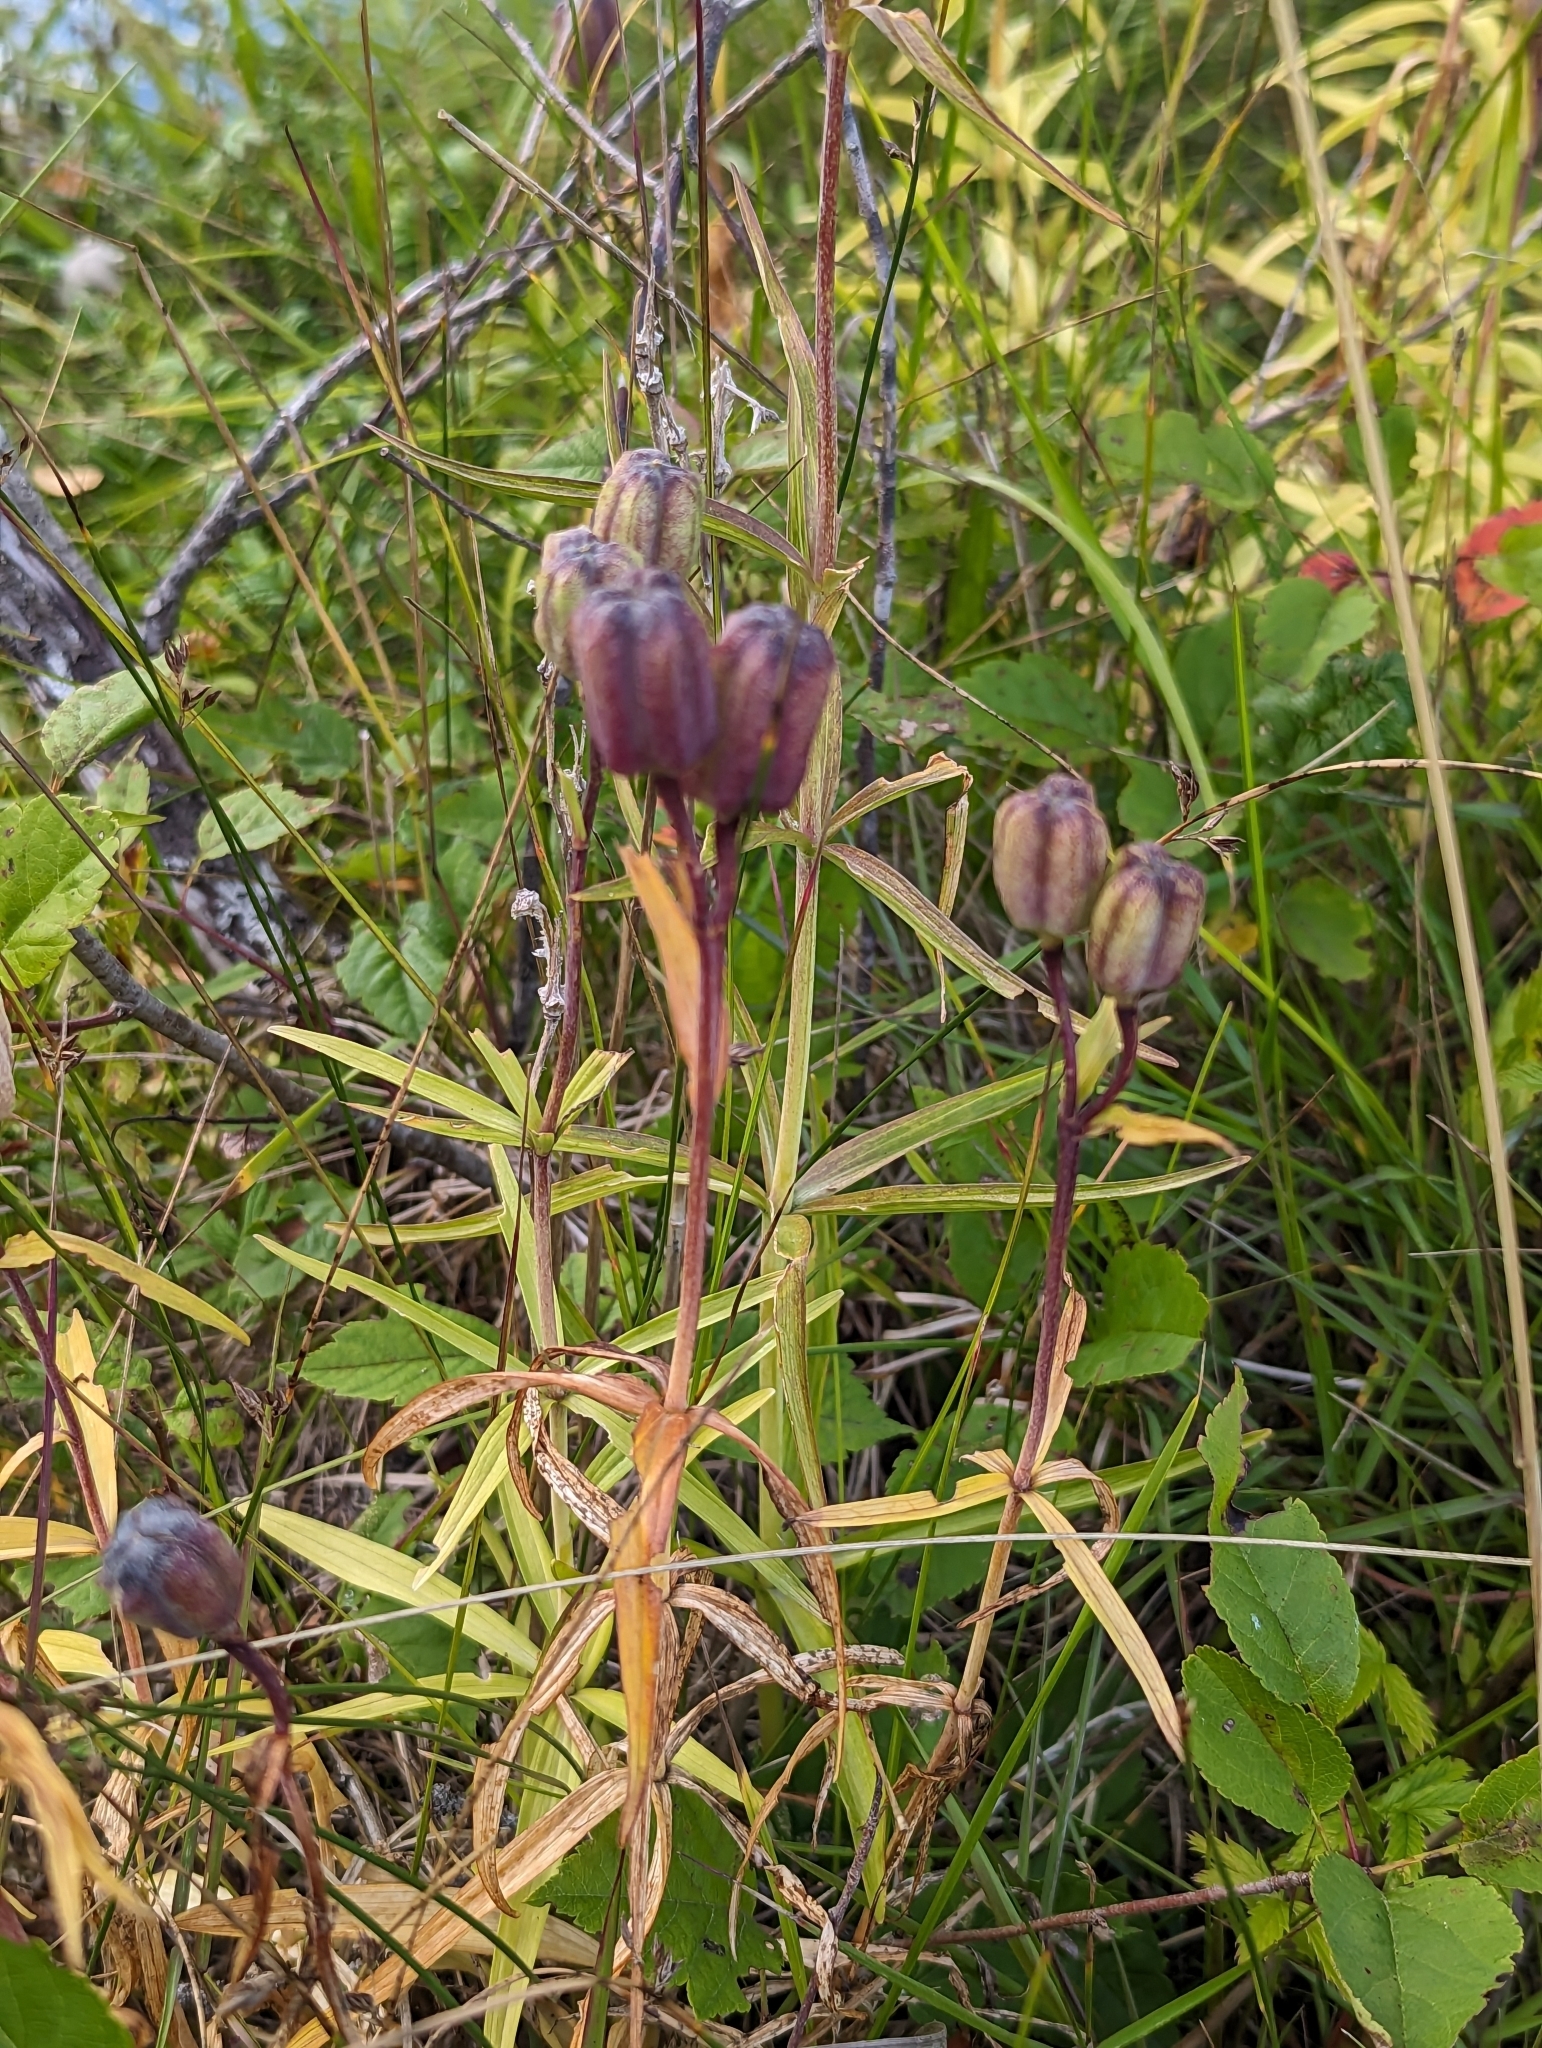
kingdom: Plantae
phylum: Tracheophyta
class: Liliopsida
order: Liliales
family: Liliaceae
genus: Fritillaria
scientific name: Fritillaria camschatcensis
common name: Kamchatka fritillary
